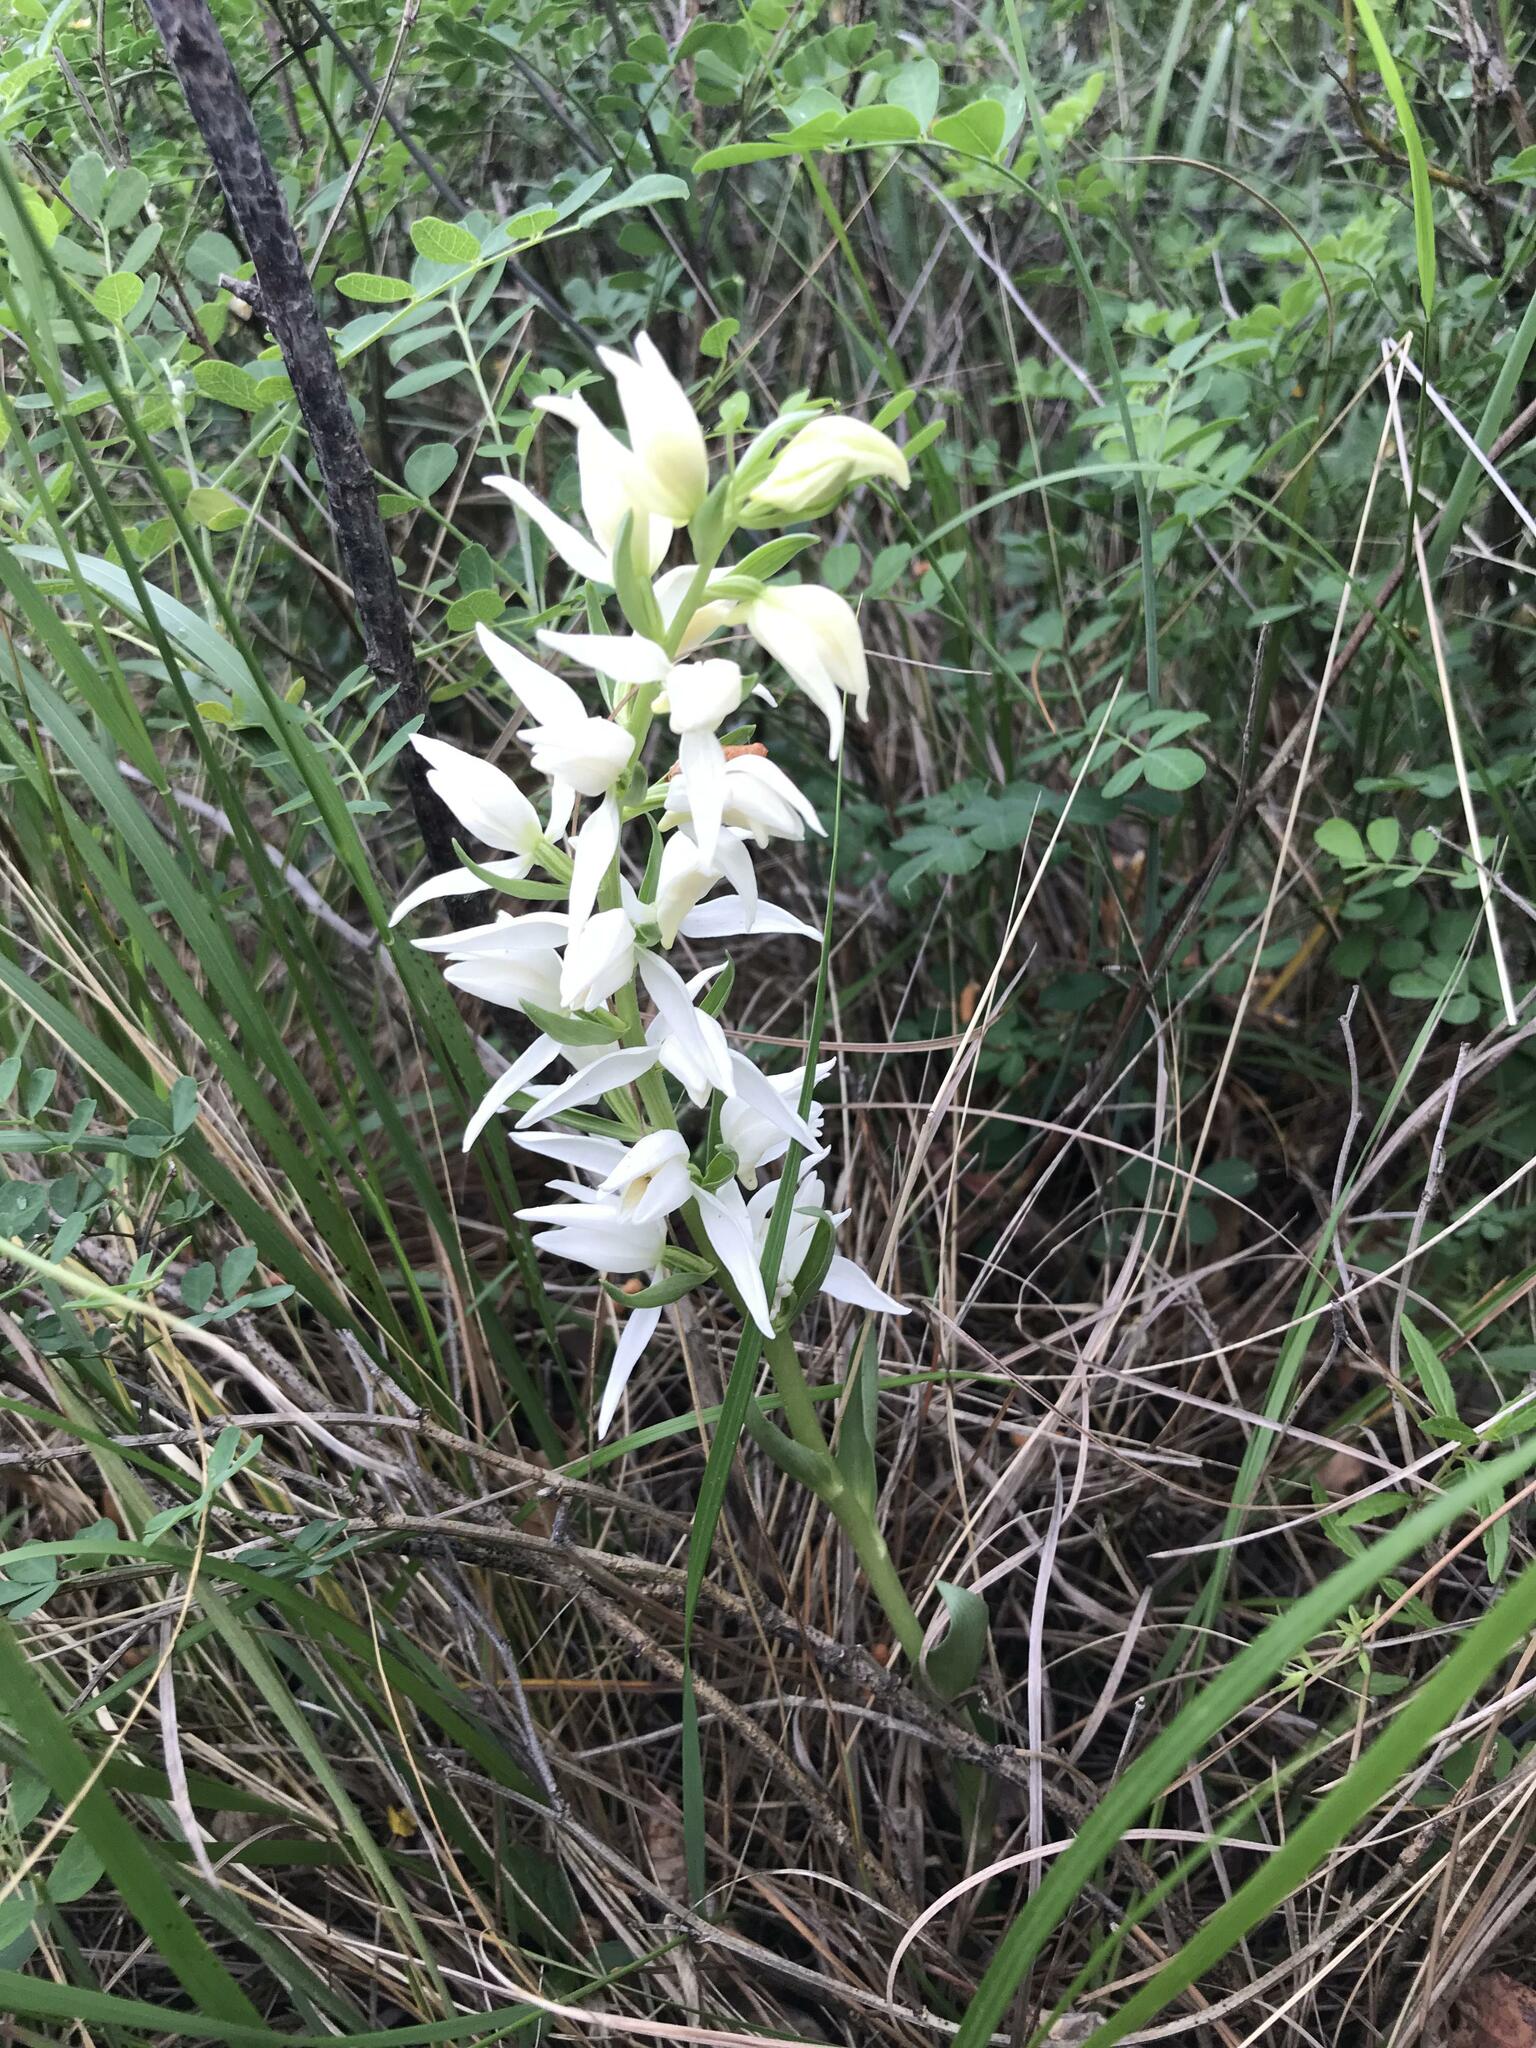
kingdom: Plantae
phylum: Tracheophyta
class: Liliopsida
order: Asparagales
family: Orchidaceae
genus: Cephalanthera
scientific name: Cephalanthera epipactoides
